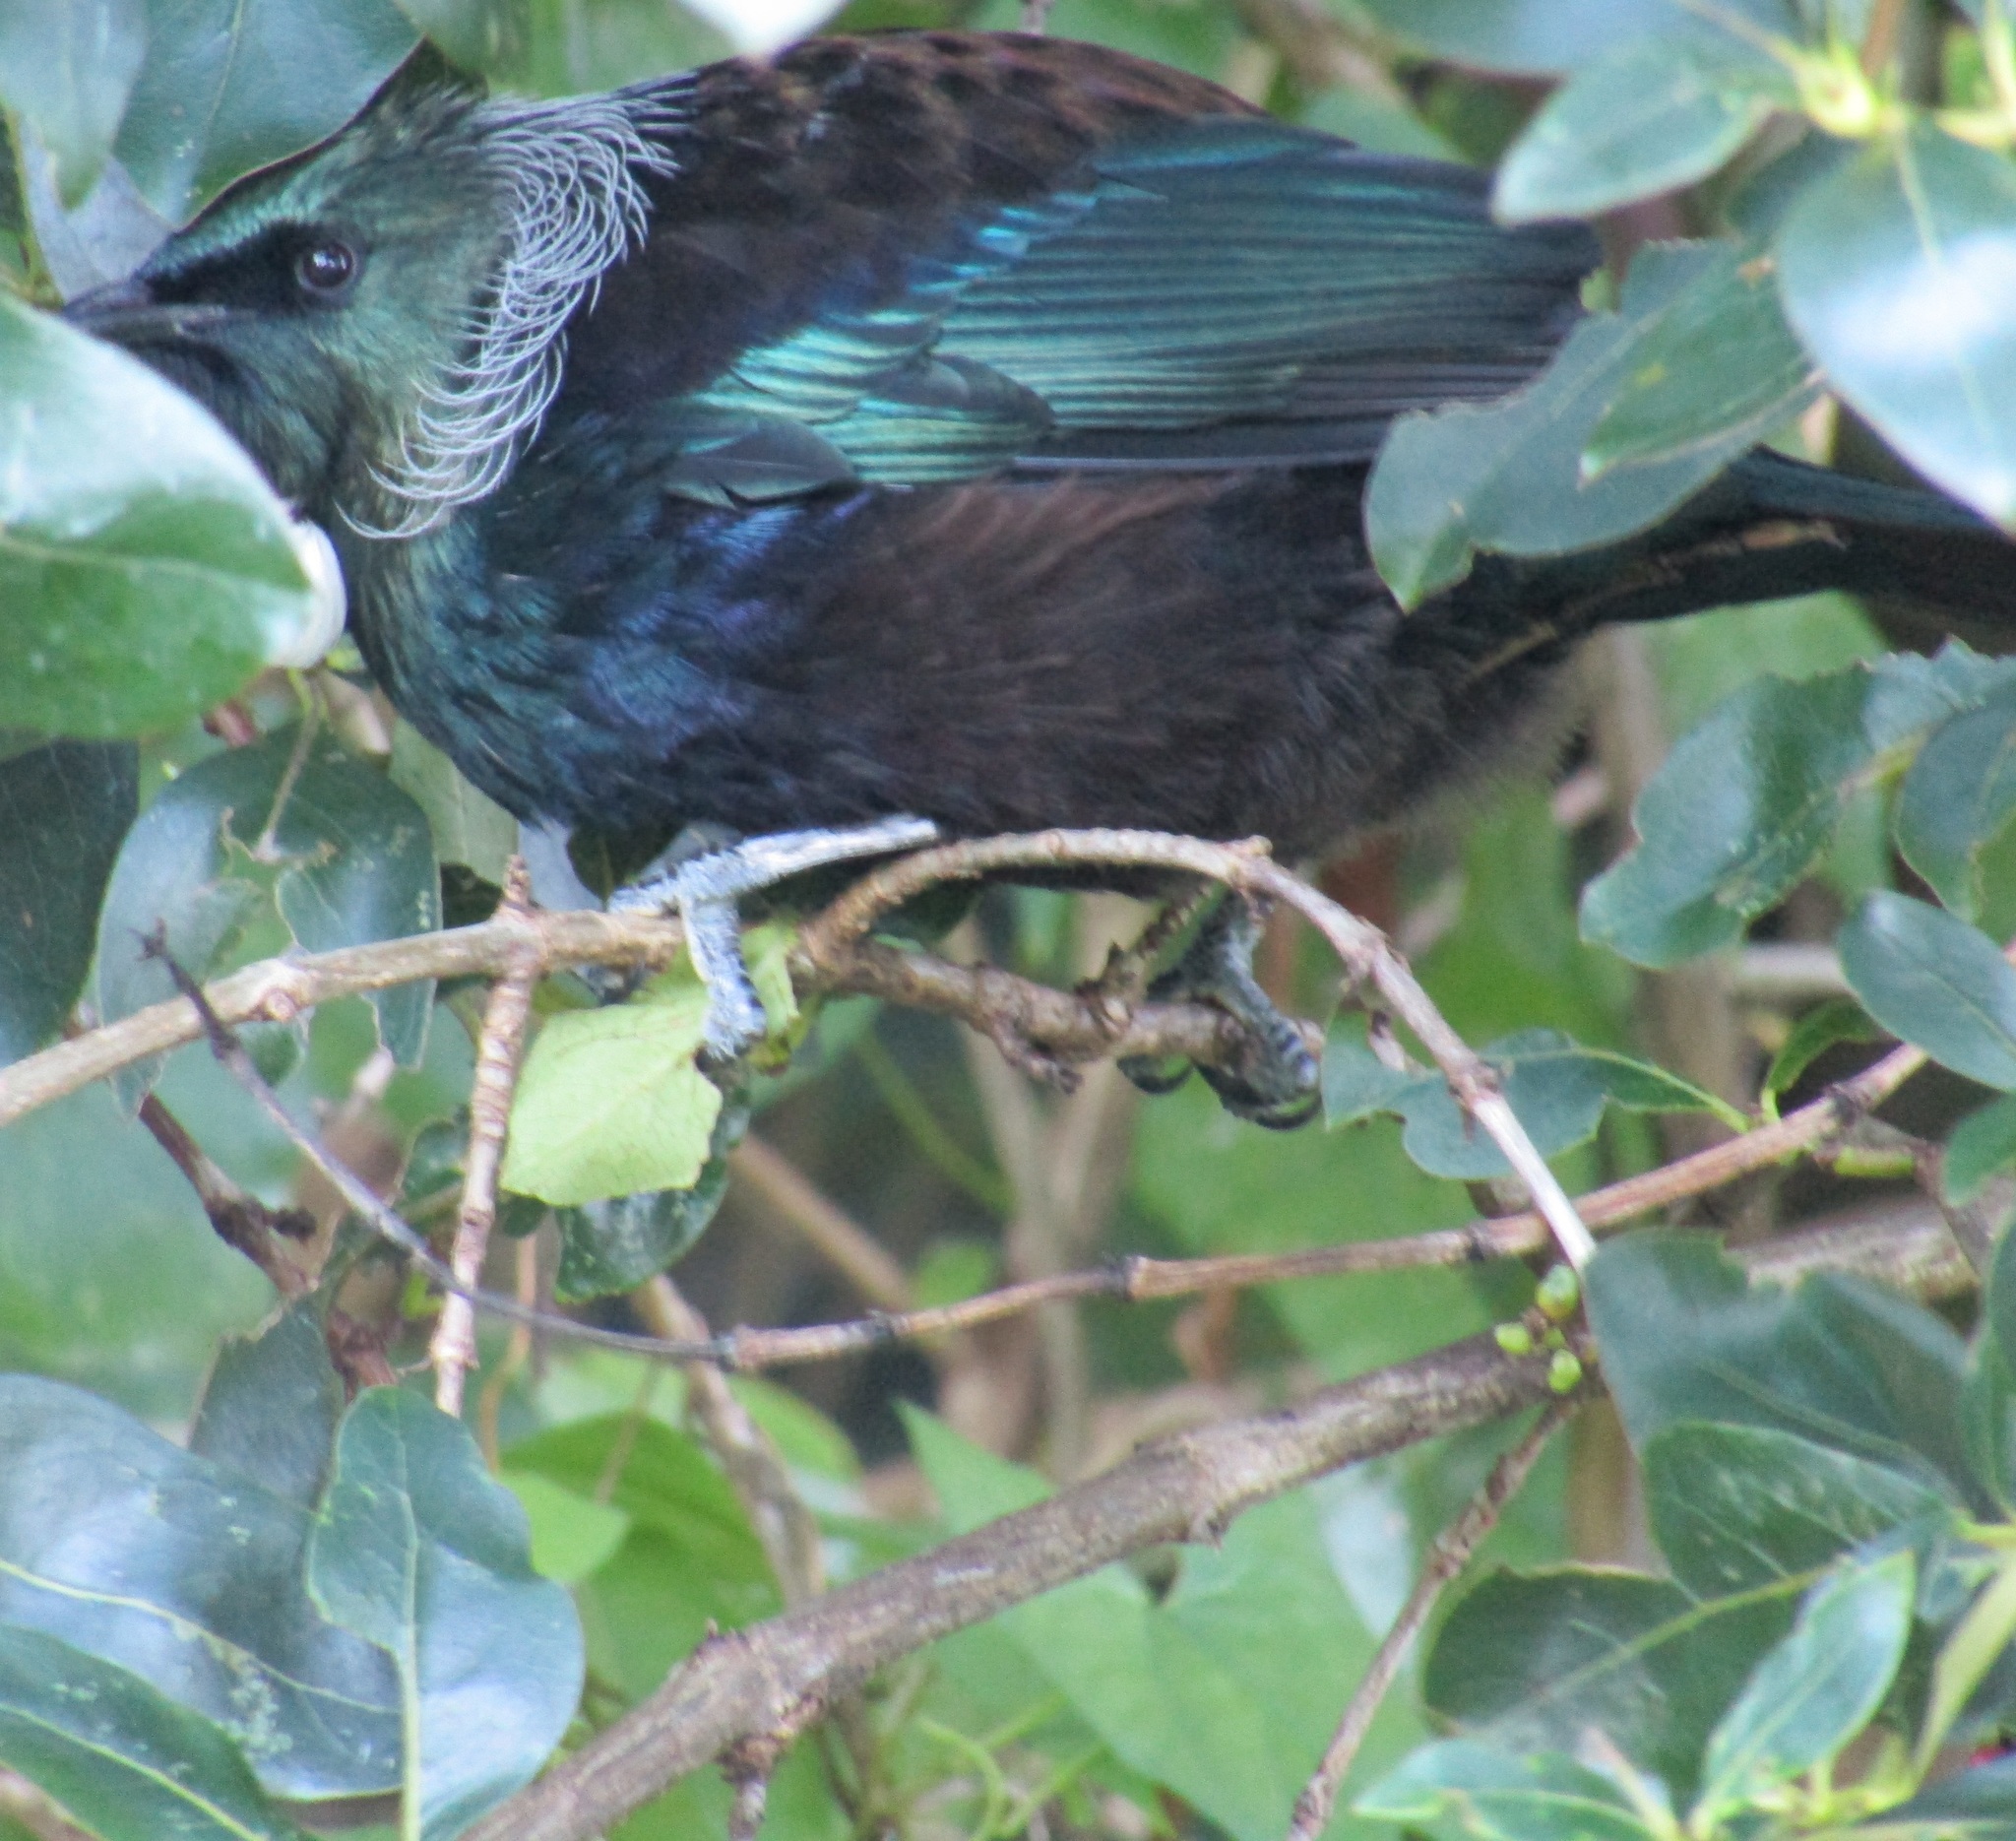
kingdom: Animalia
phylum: Chordata
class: Aves
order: Passeriformes
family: Meliphagidae
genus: Prosthemadera
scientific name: Prosthemadera novaeseelandiae
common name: Tui
